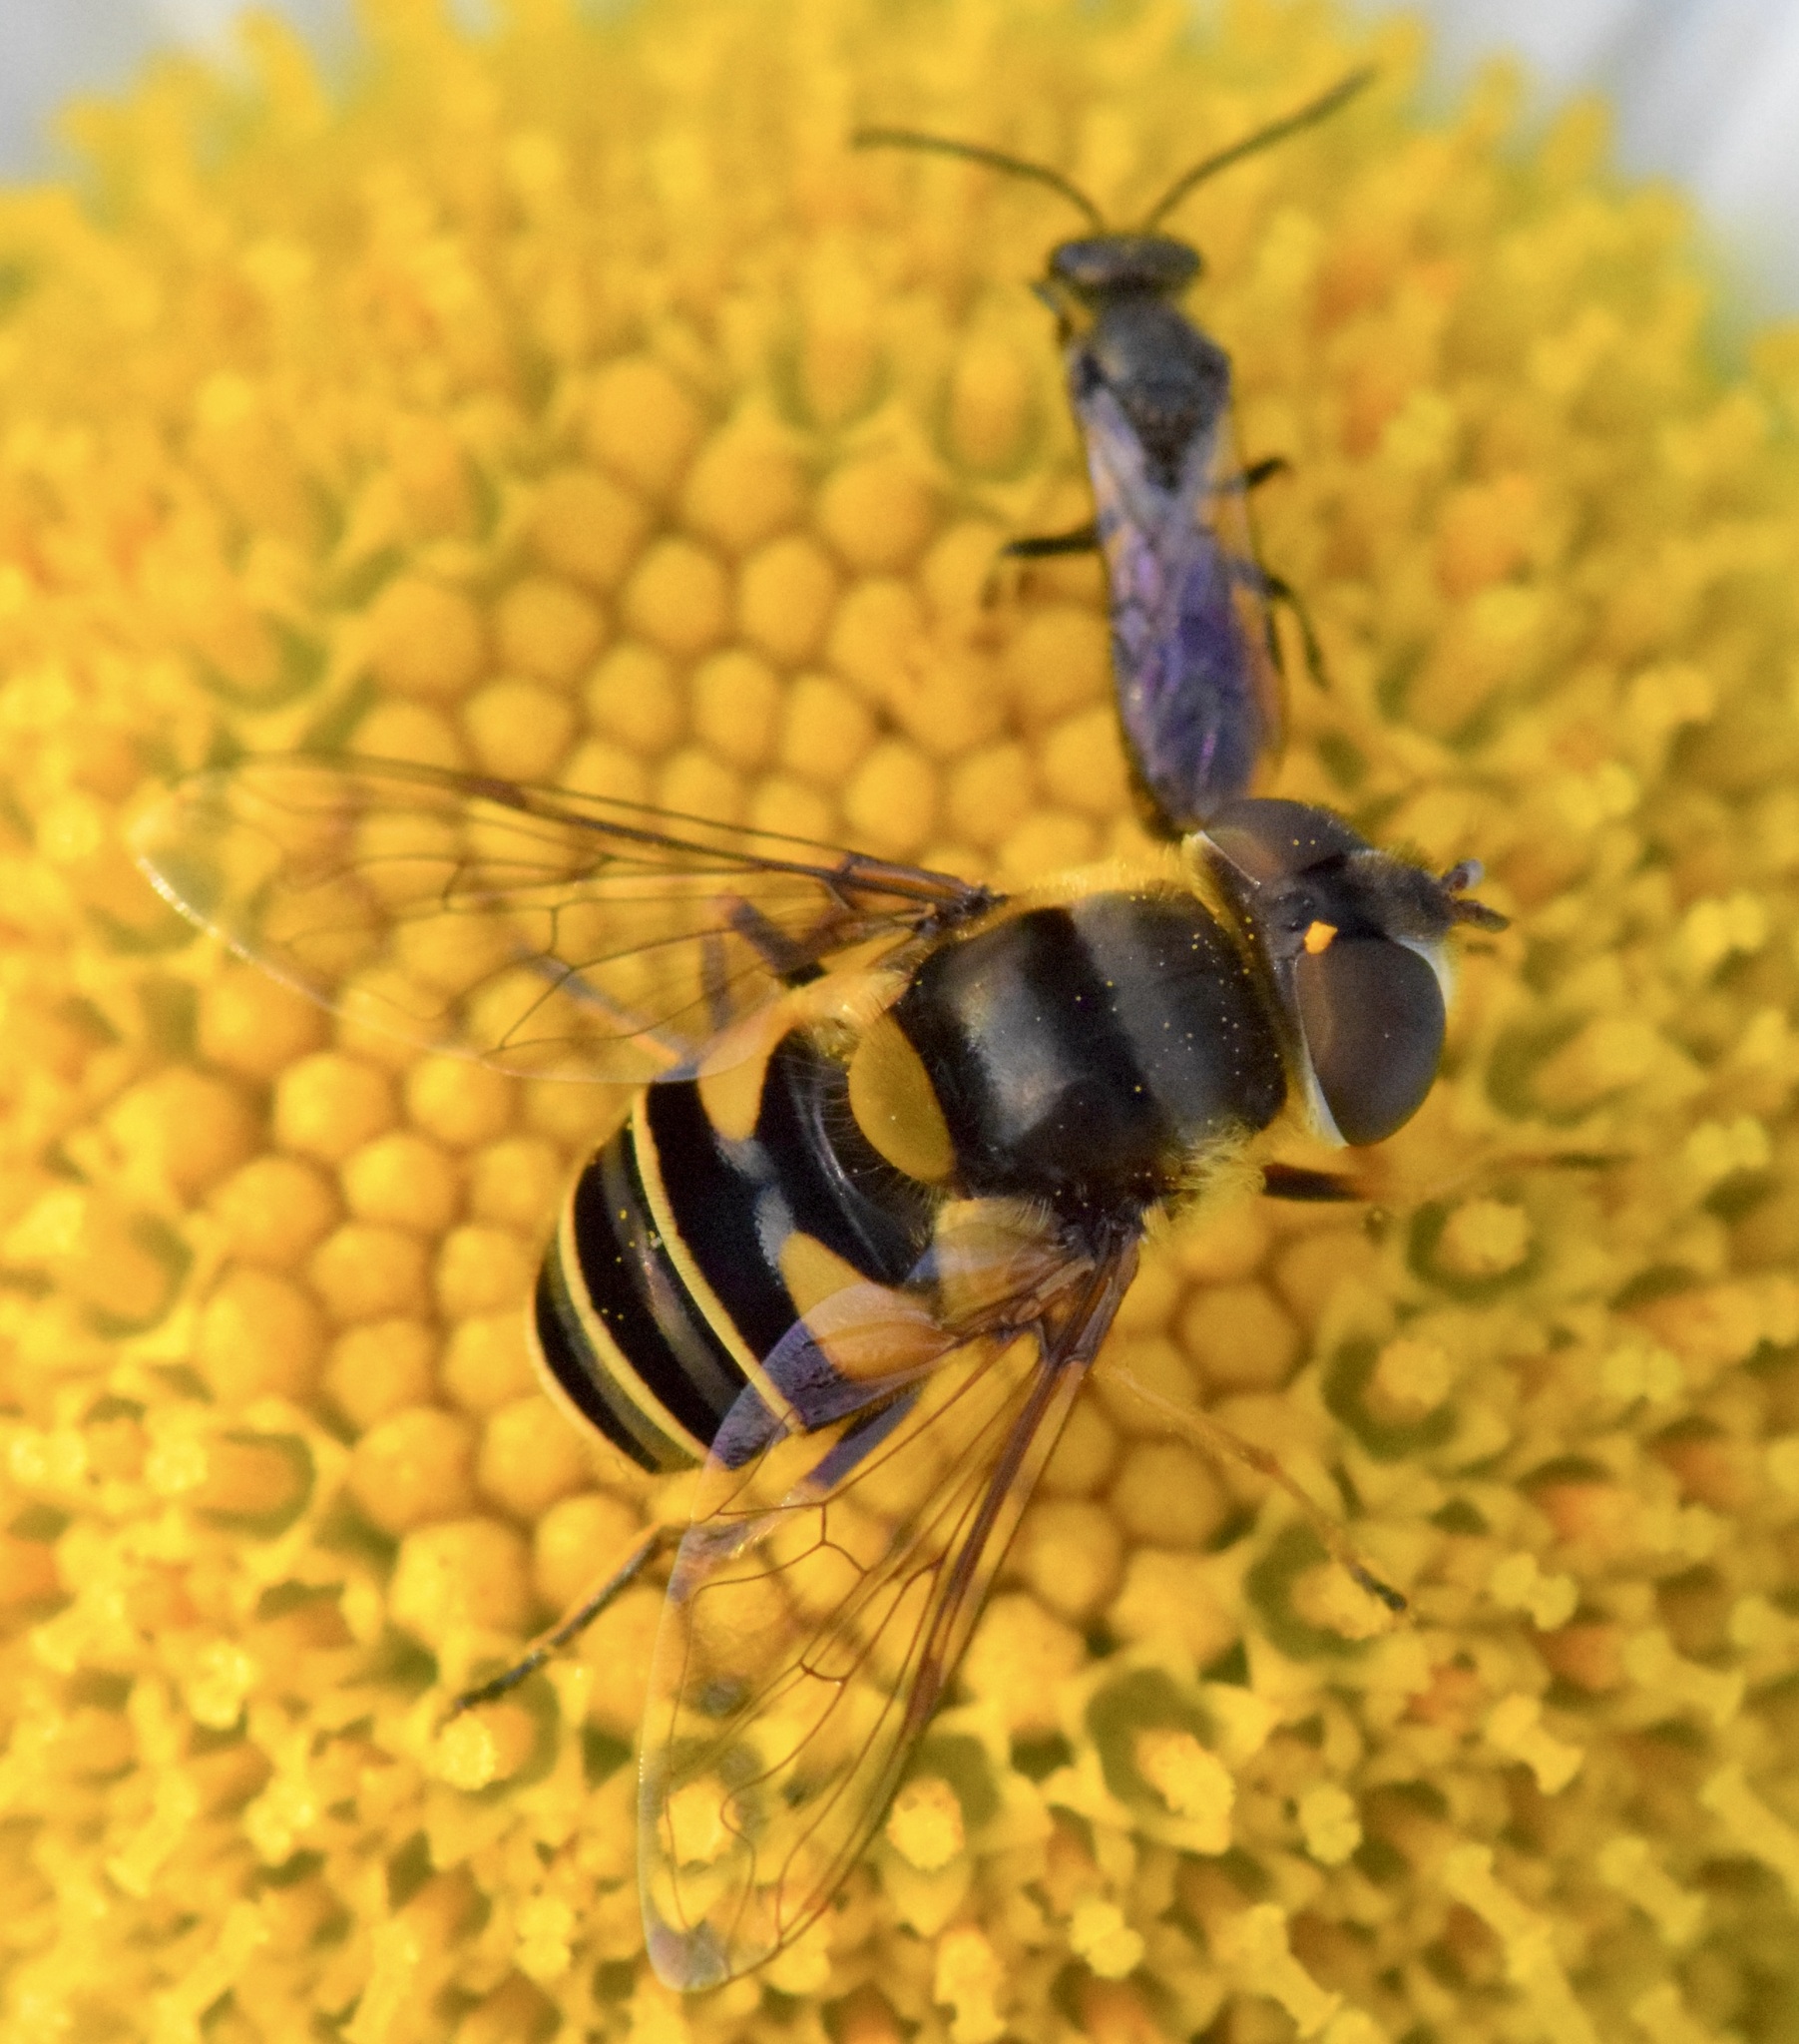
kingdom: Animalia
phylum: Arthropoda
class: Insecta
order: Diptera
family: Syrphidae
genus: Eristalis
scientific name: Eristalis transversa
